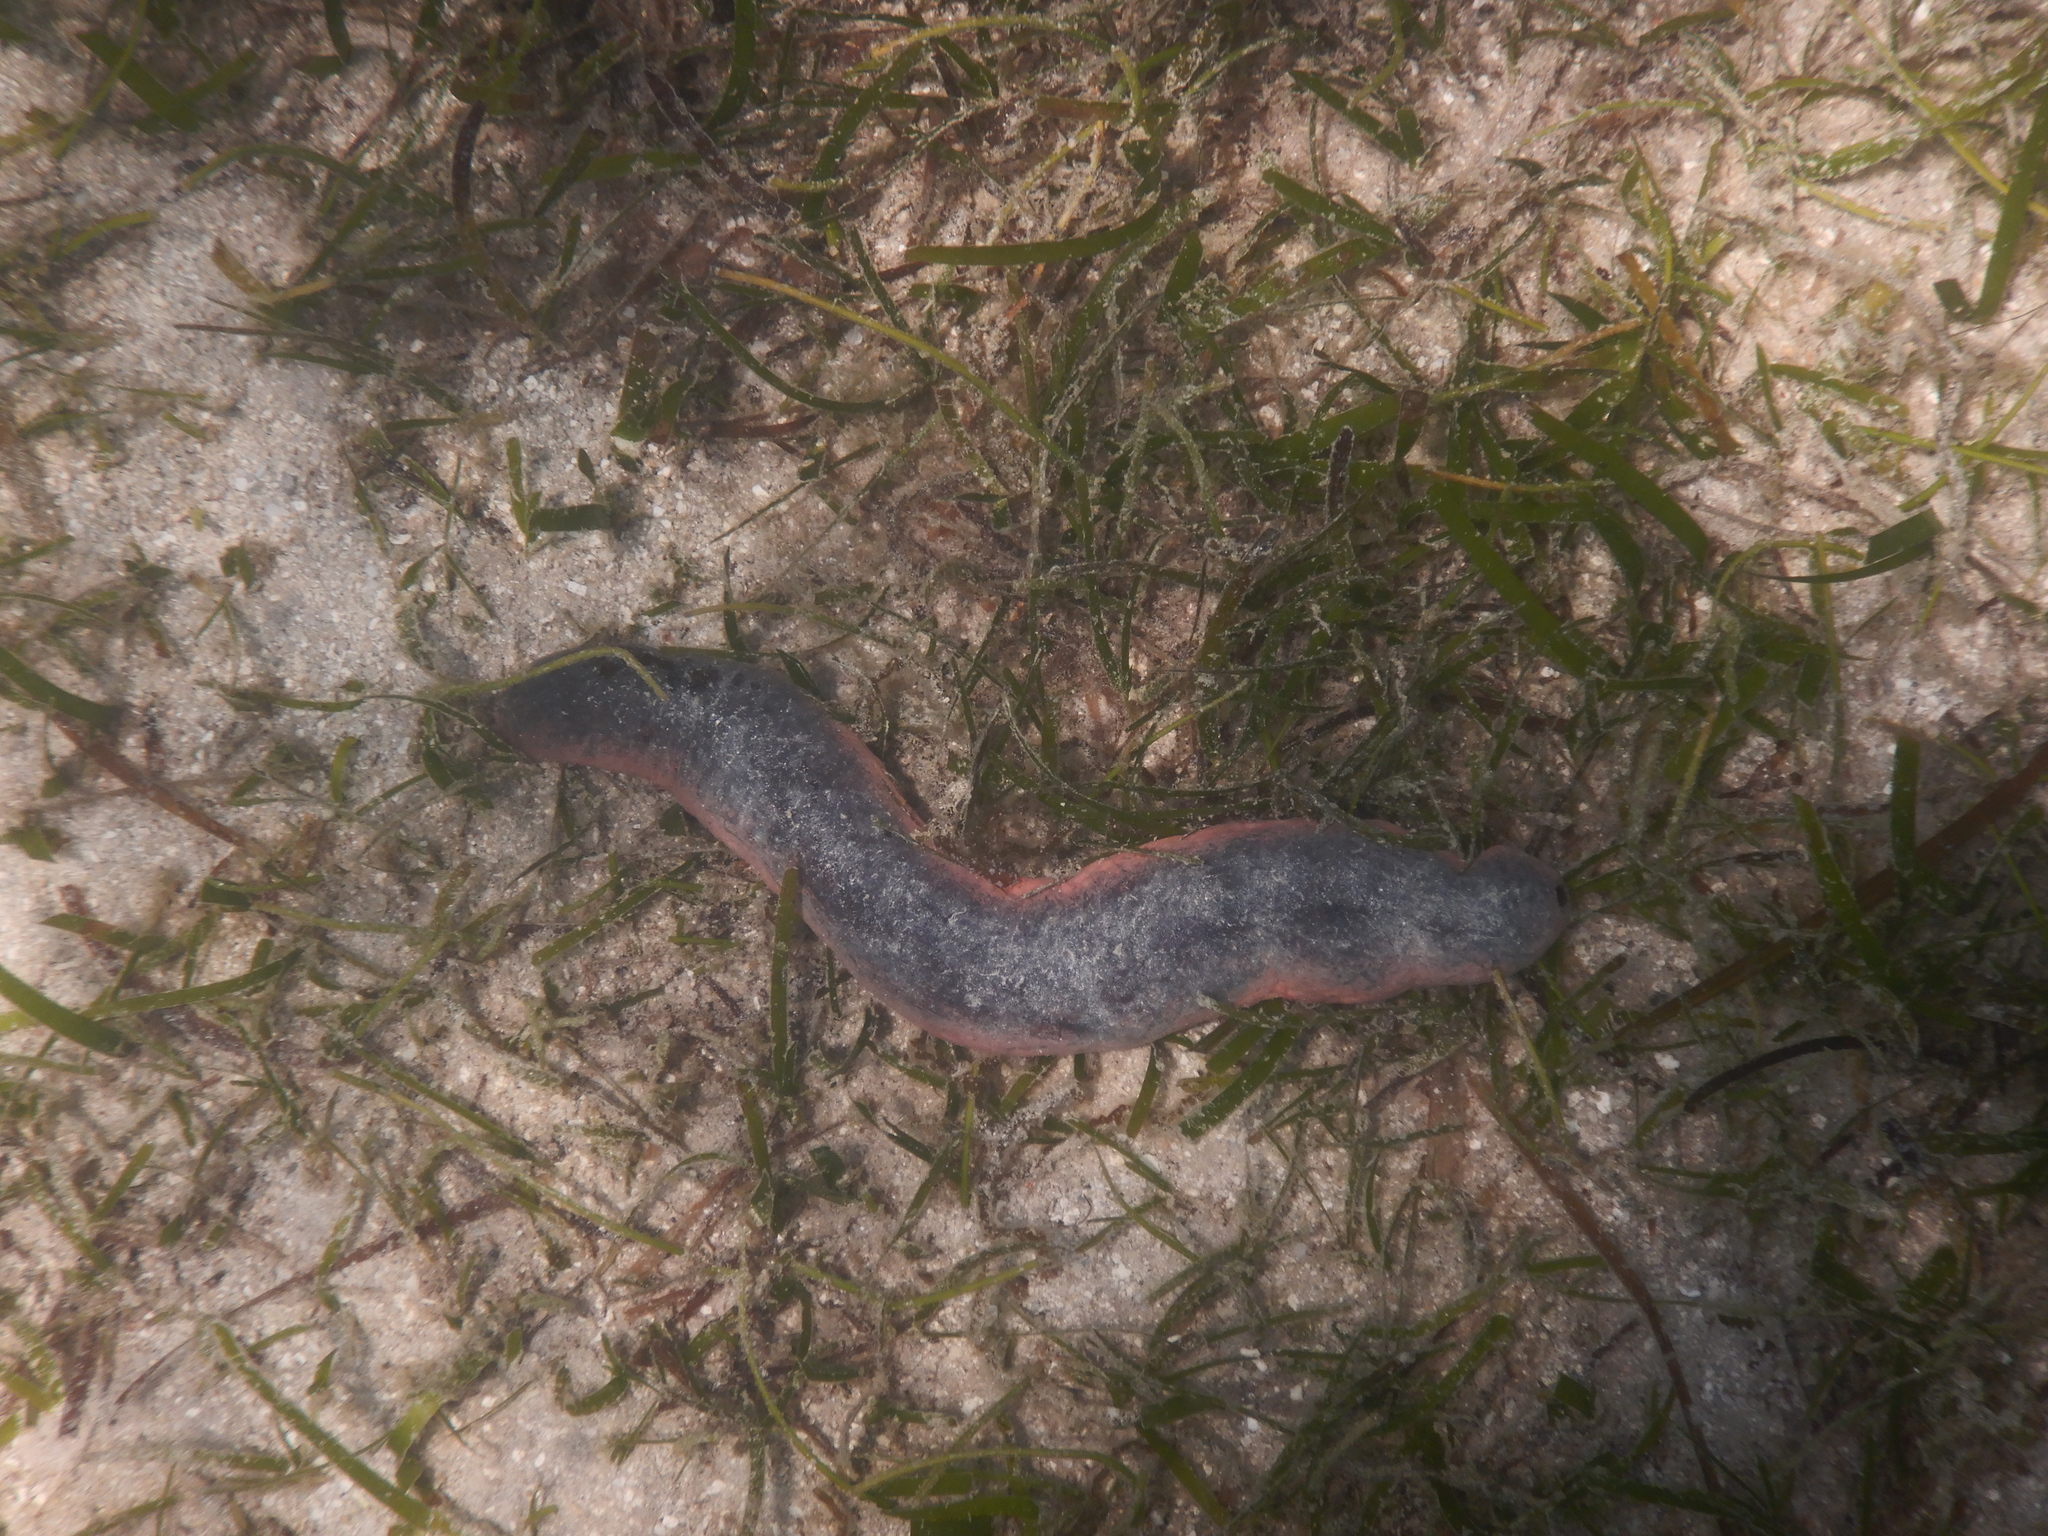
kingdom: Animalia
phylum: Echinodermata
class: Holothuroidea
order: Holothuriida
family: Holothuriidae
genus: Holothuria
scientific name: Holothuria edulis
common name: Pinkfish
